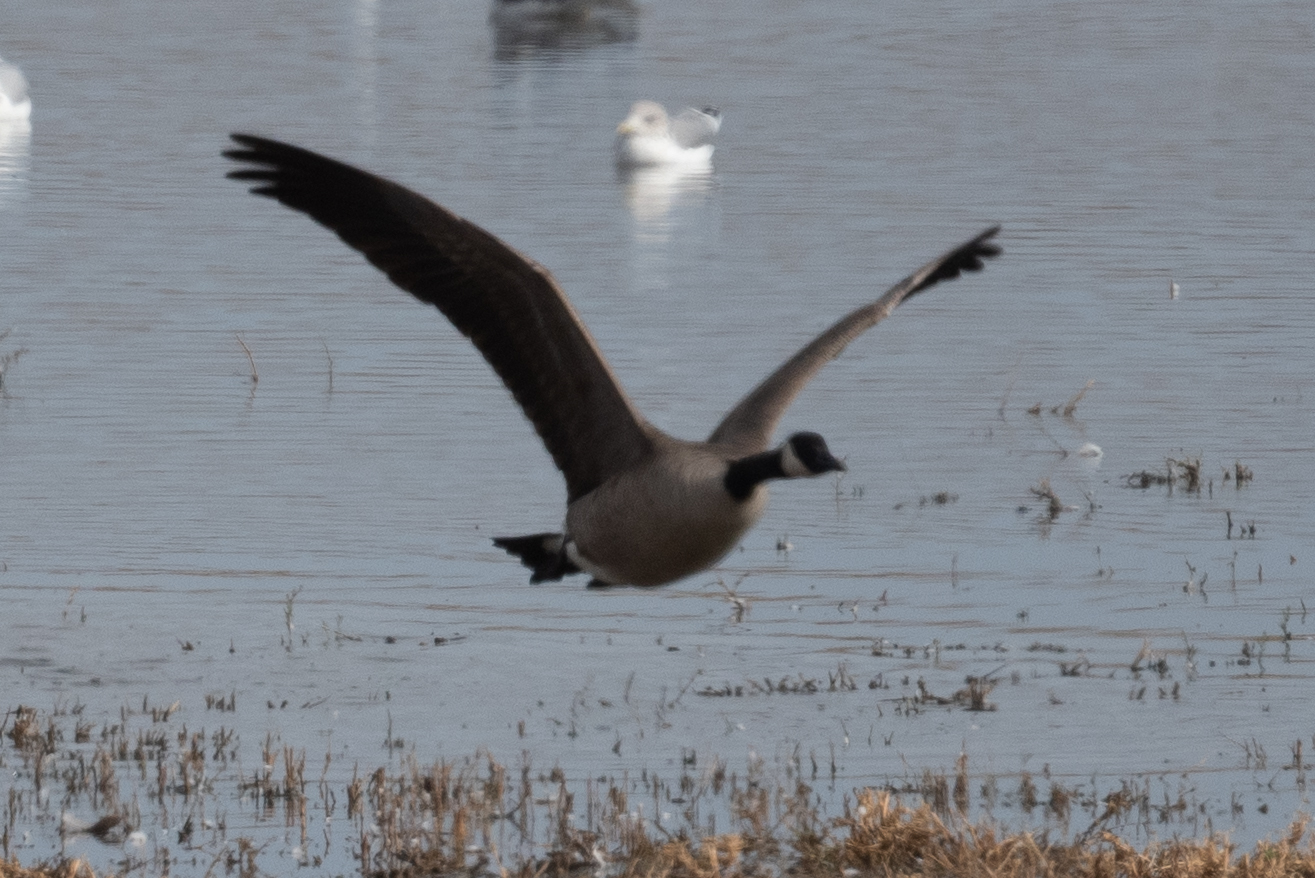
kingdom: Animalia
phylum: Chordata
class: Aves
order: Anseriformes
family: Anatidae
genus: Branta
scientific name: Branta canadensis
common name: Canada goose
